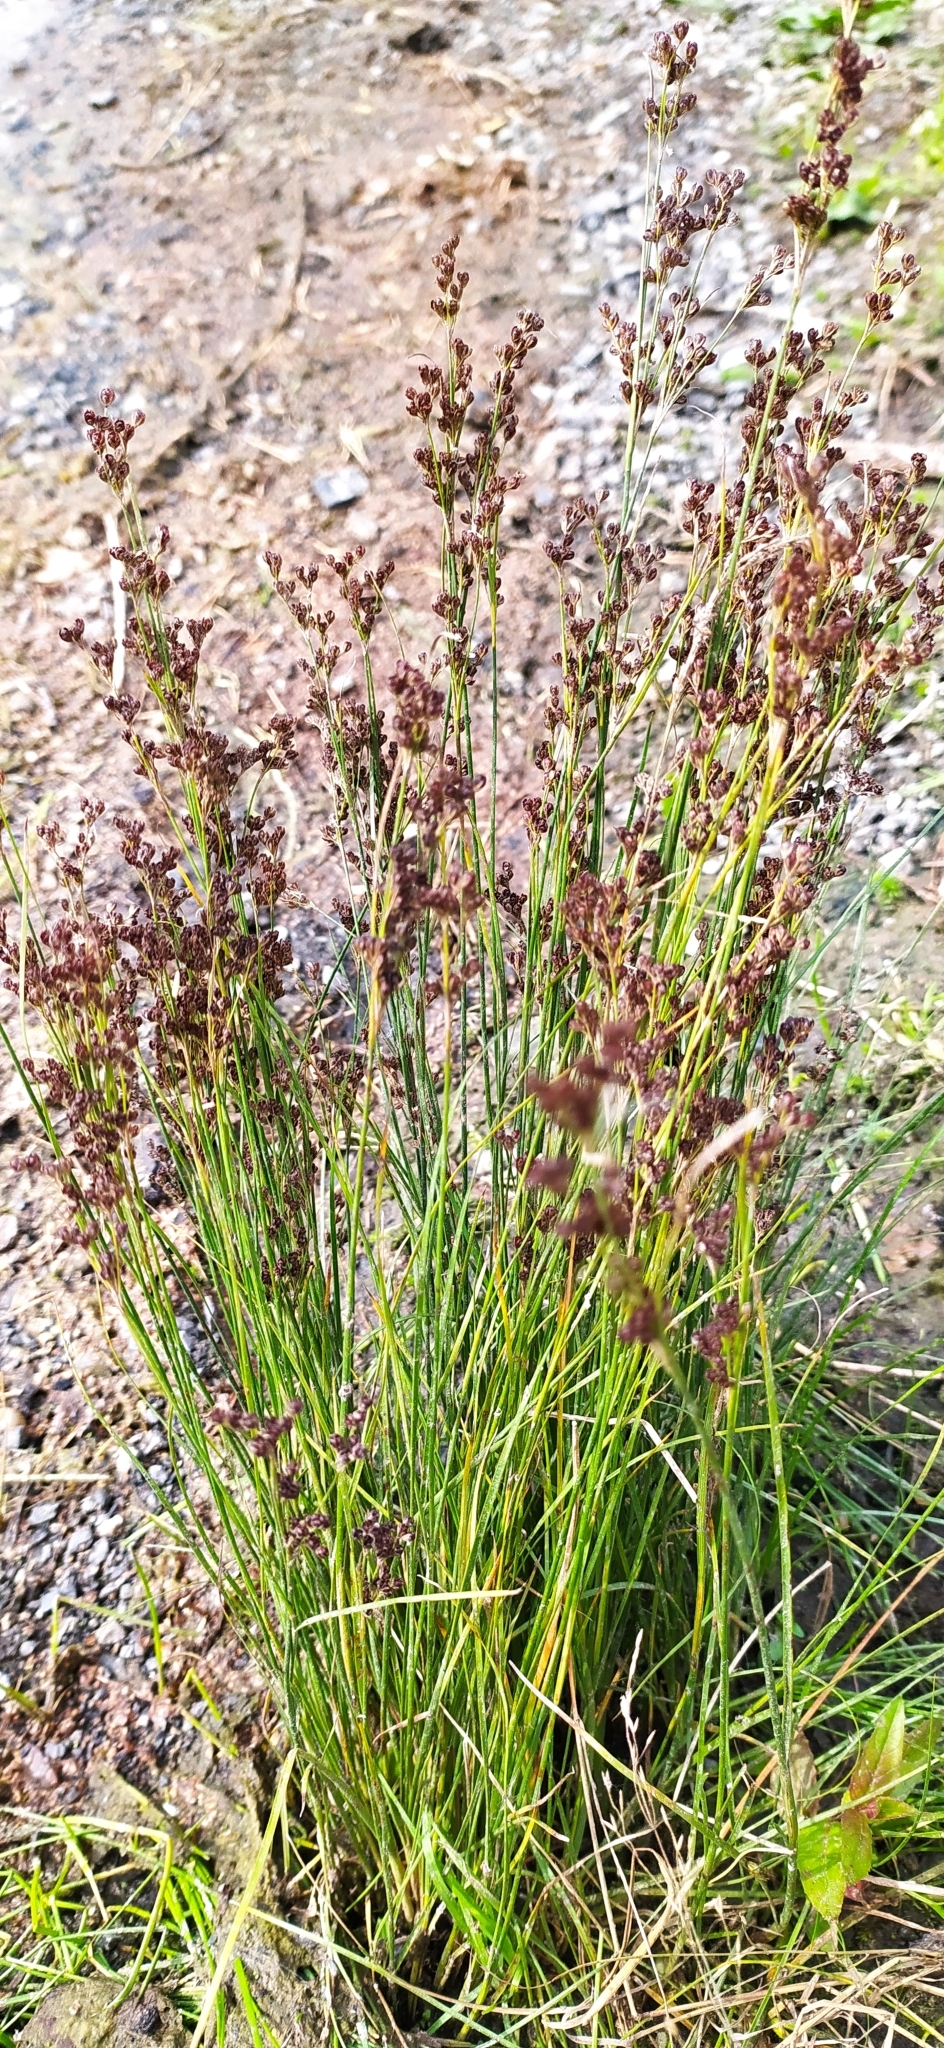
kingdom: Plantae
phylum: Tracheophyta
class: Liliopsida
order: Poales
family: Juncaceae
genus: Juncus
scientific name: Juncus compressus
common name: Round-fruited rush
